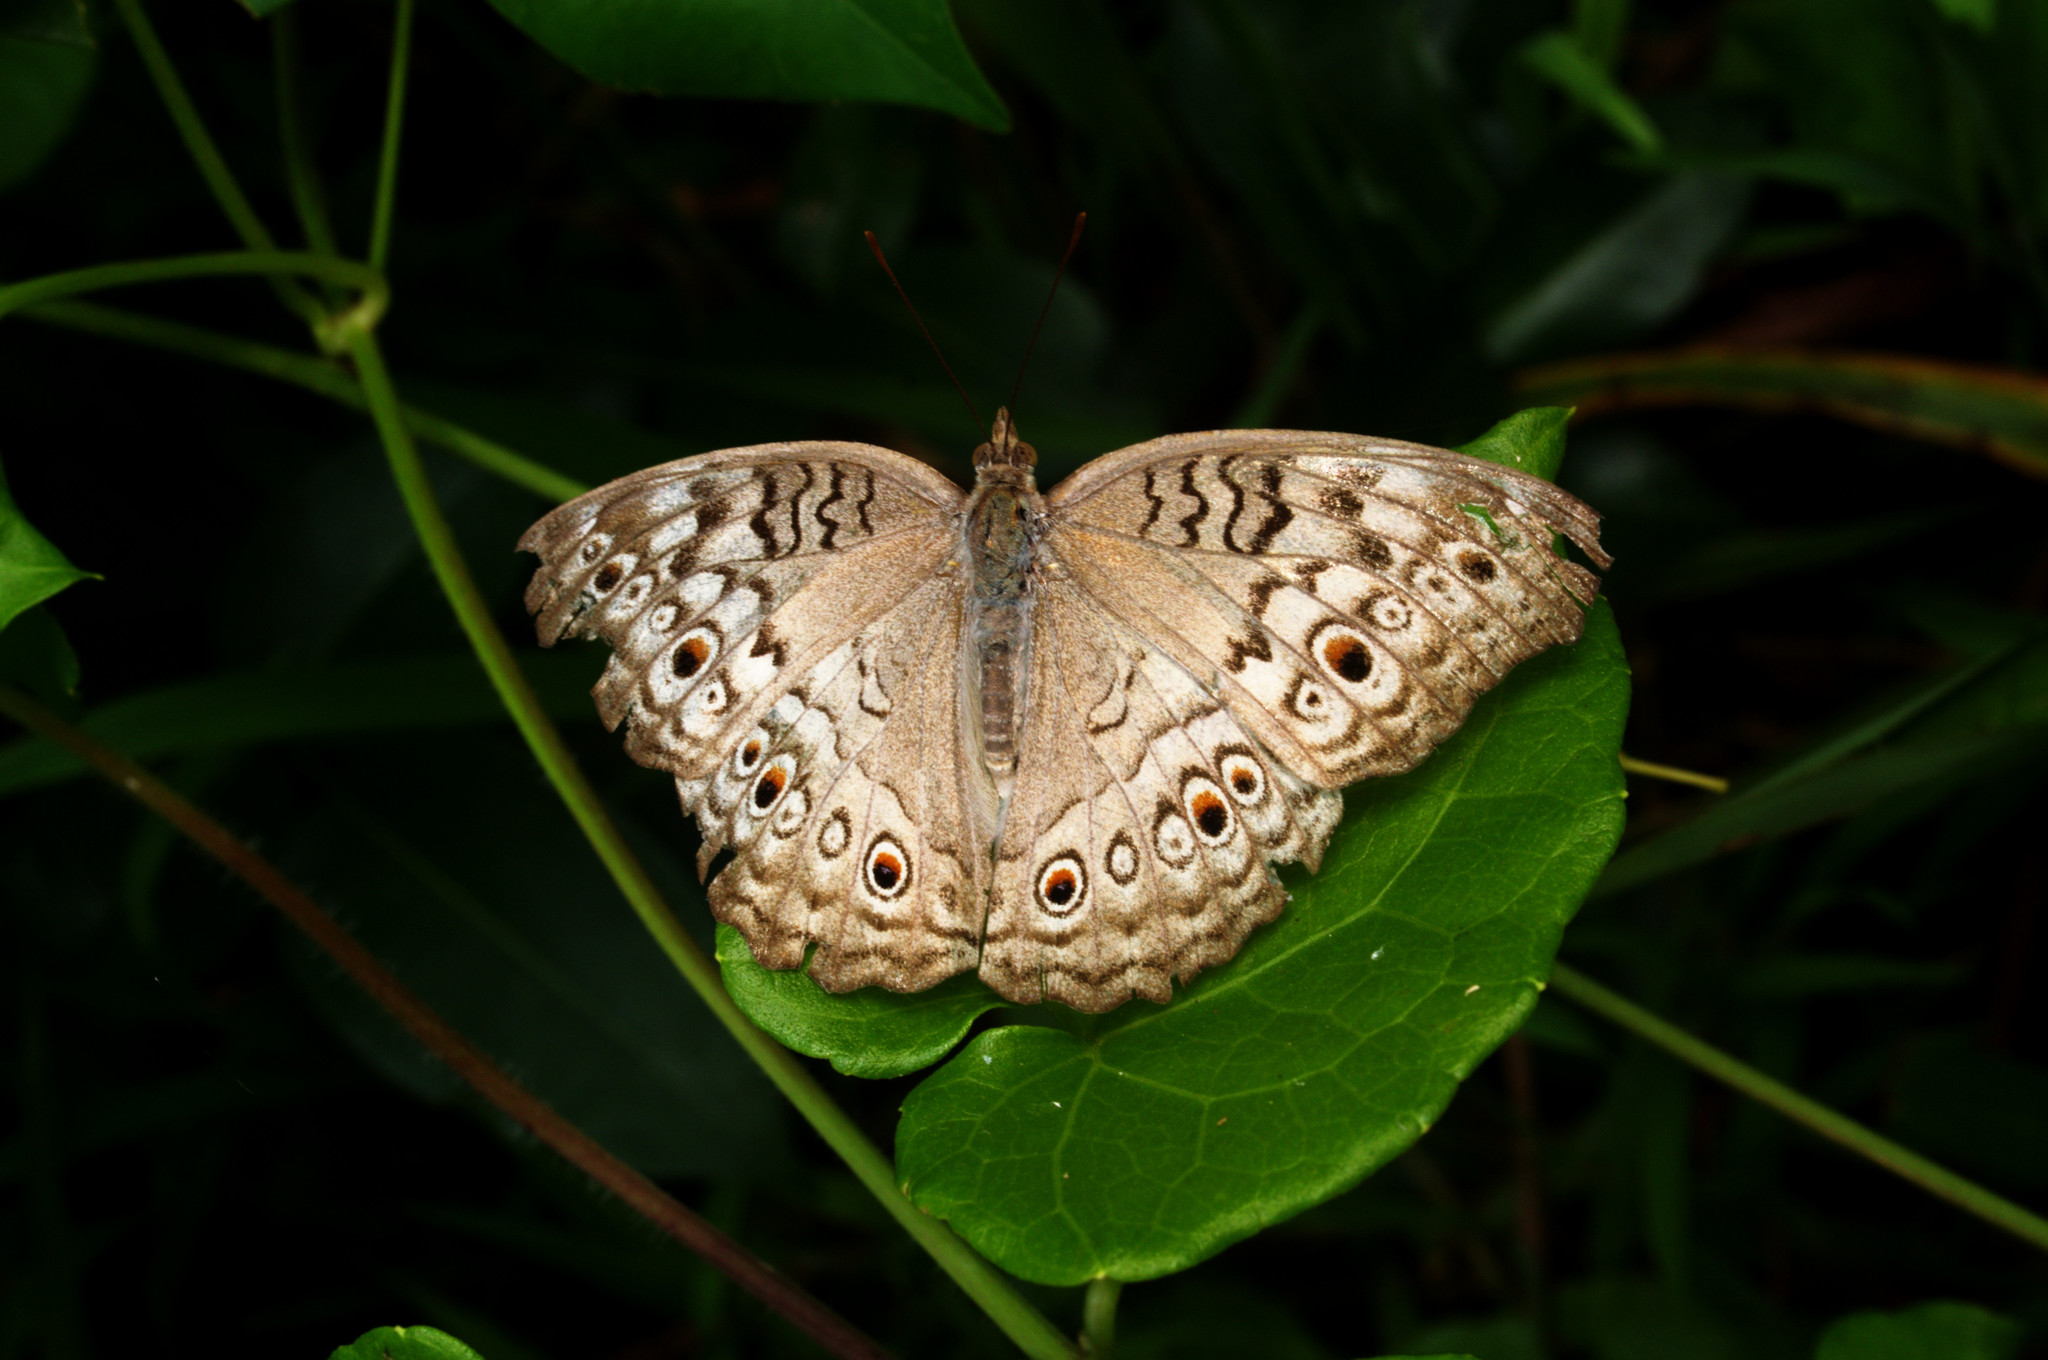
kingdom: Animalia
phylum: Arthropoda
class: Insecta
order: Lepidoptera
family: Nymphalidae
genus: Junonia
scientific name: Junonia atlites
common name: Grey pansy
